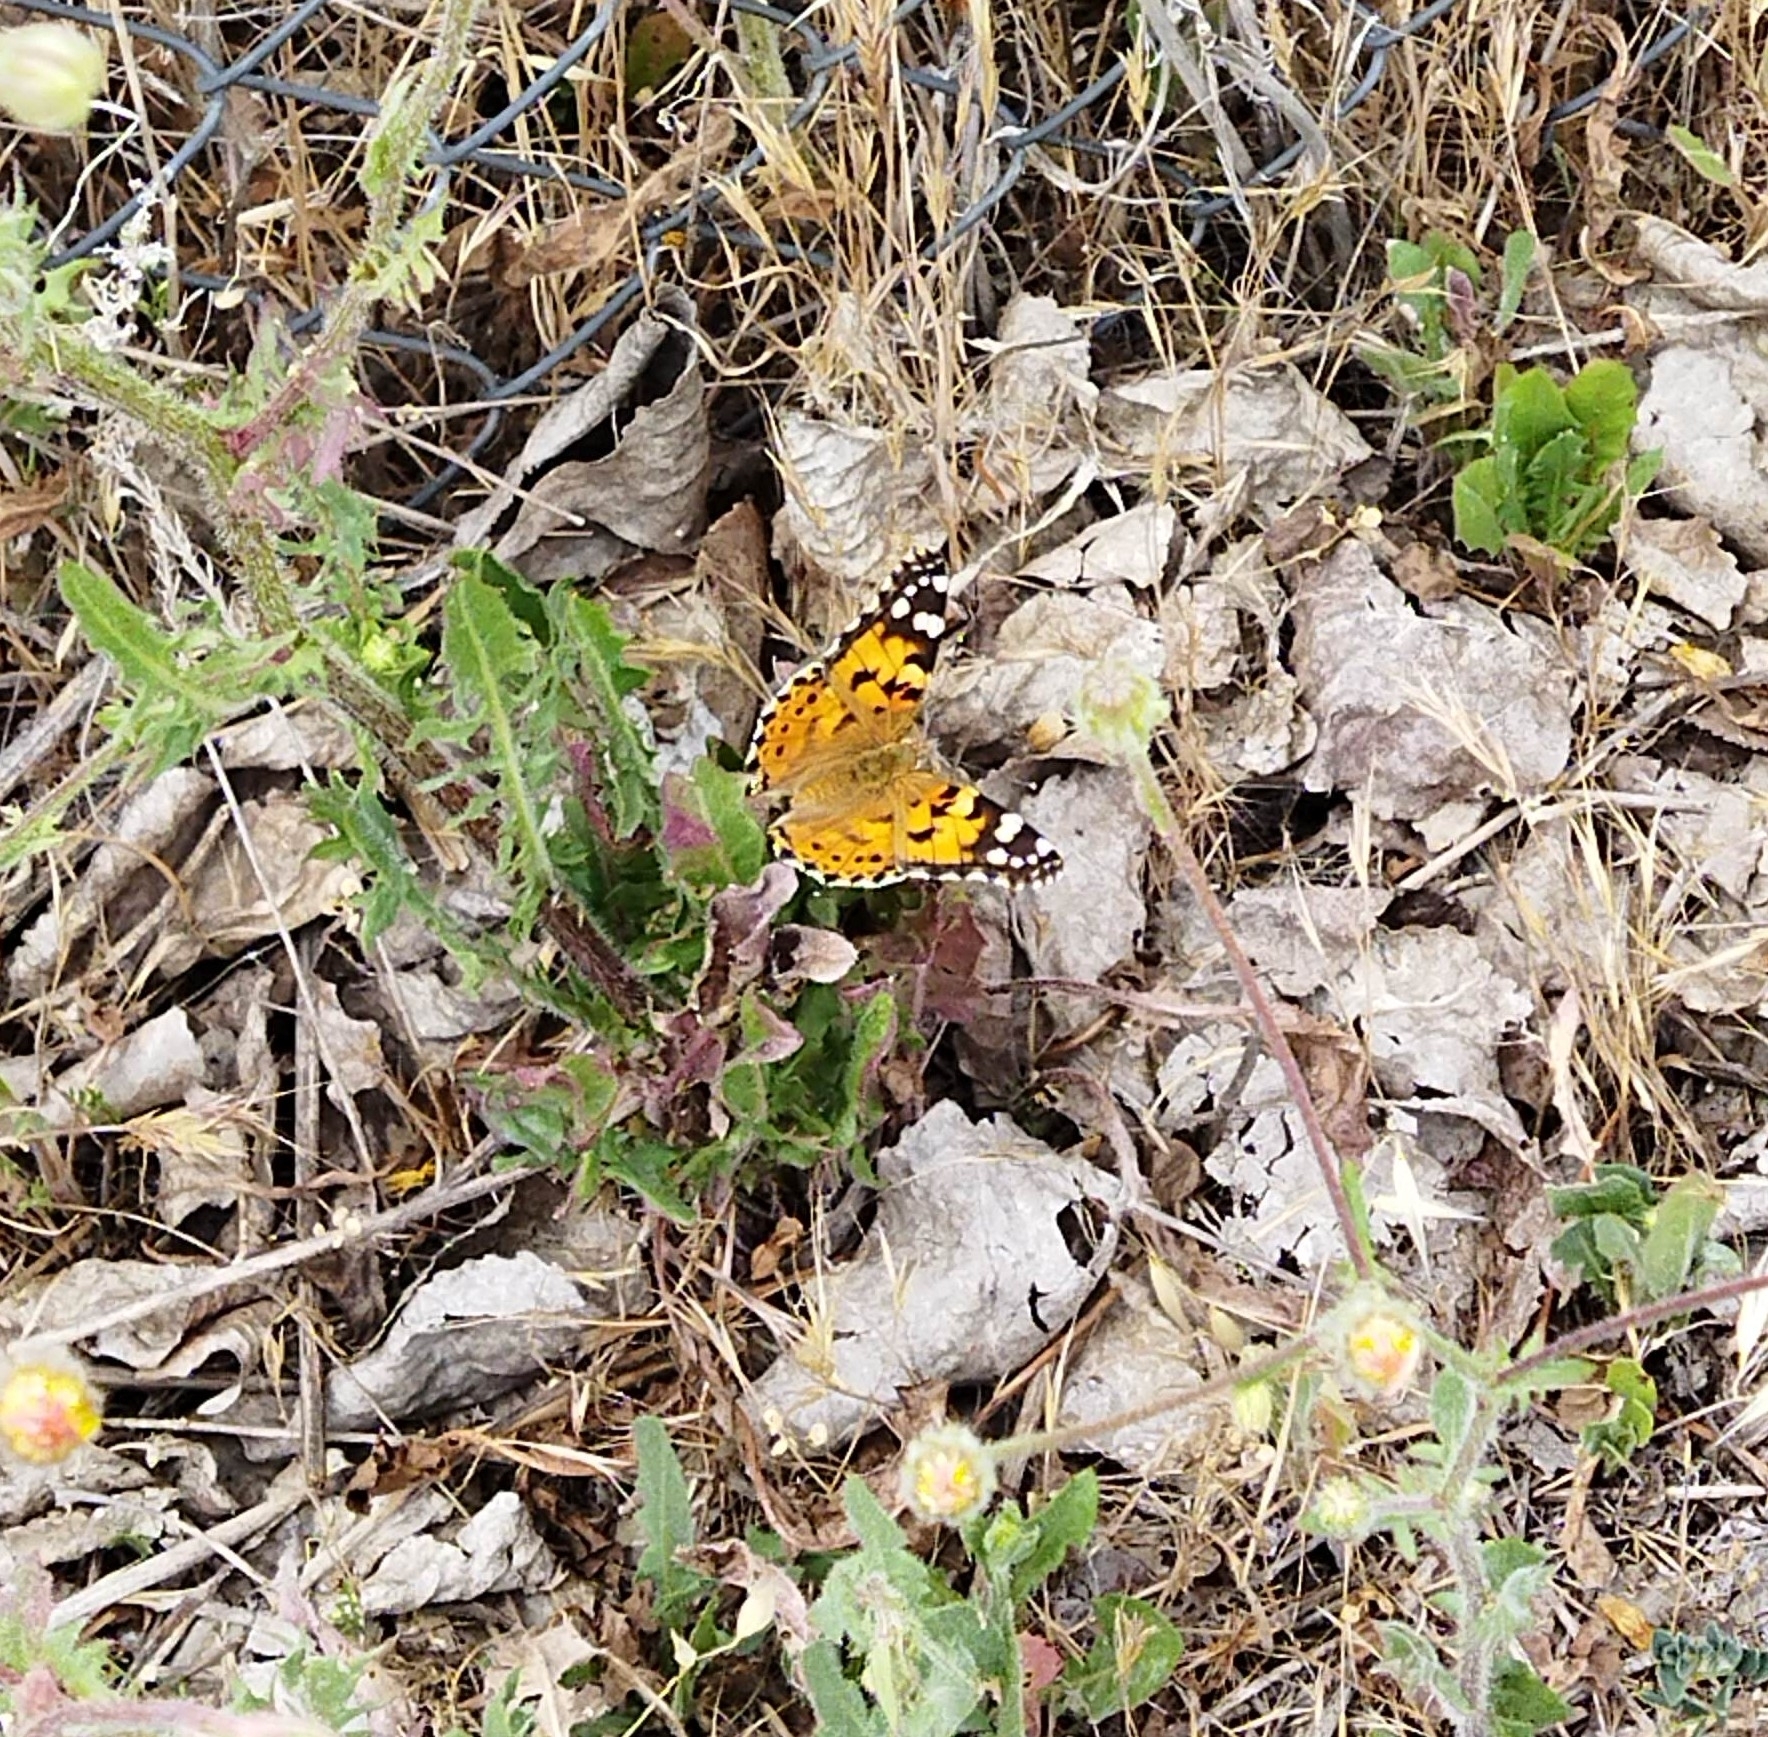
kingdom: Animalia
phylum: Arthropoda
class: Insecta
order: Lepidoptera
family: Nymphalidae
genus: Vanessa
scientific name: Vanessa cardui
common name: Painted lady
